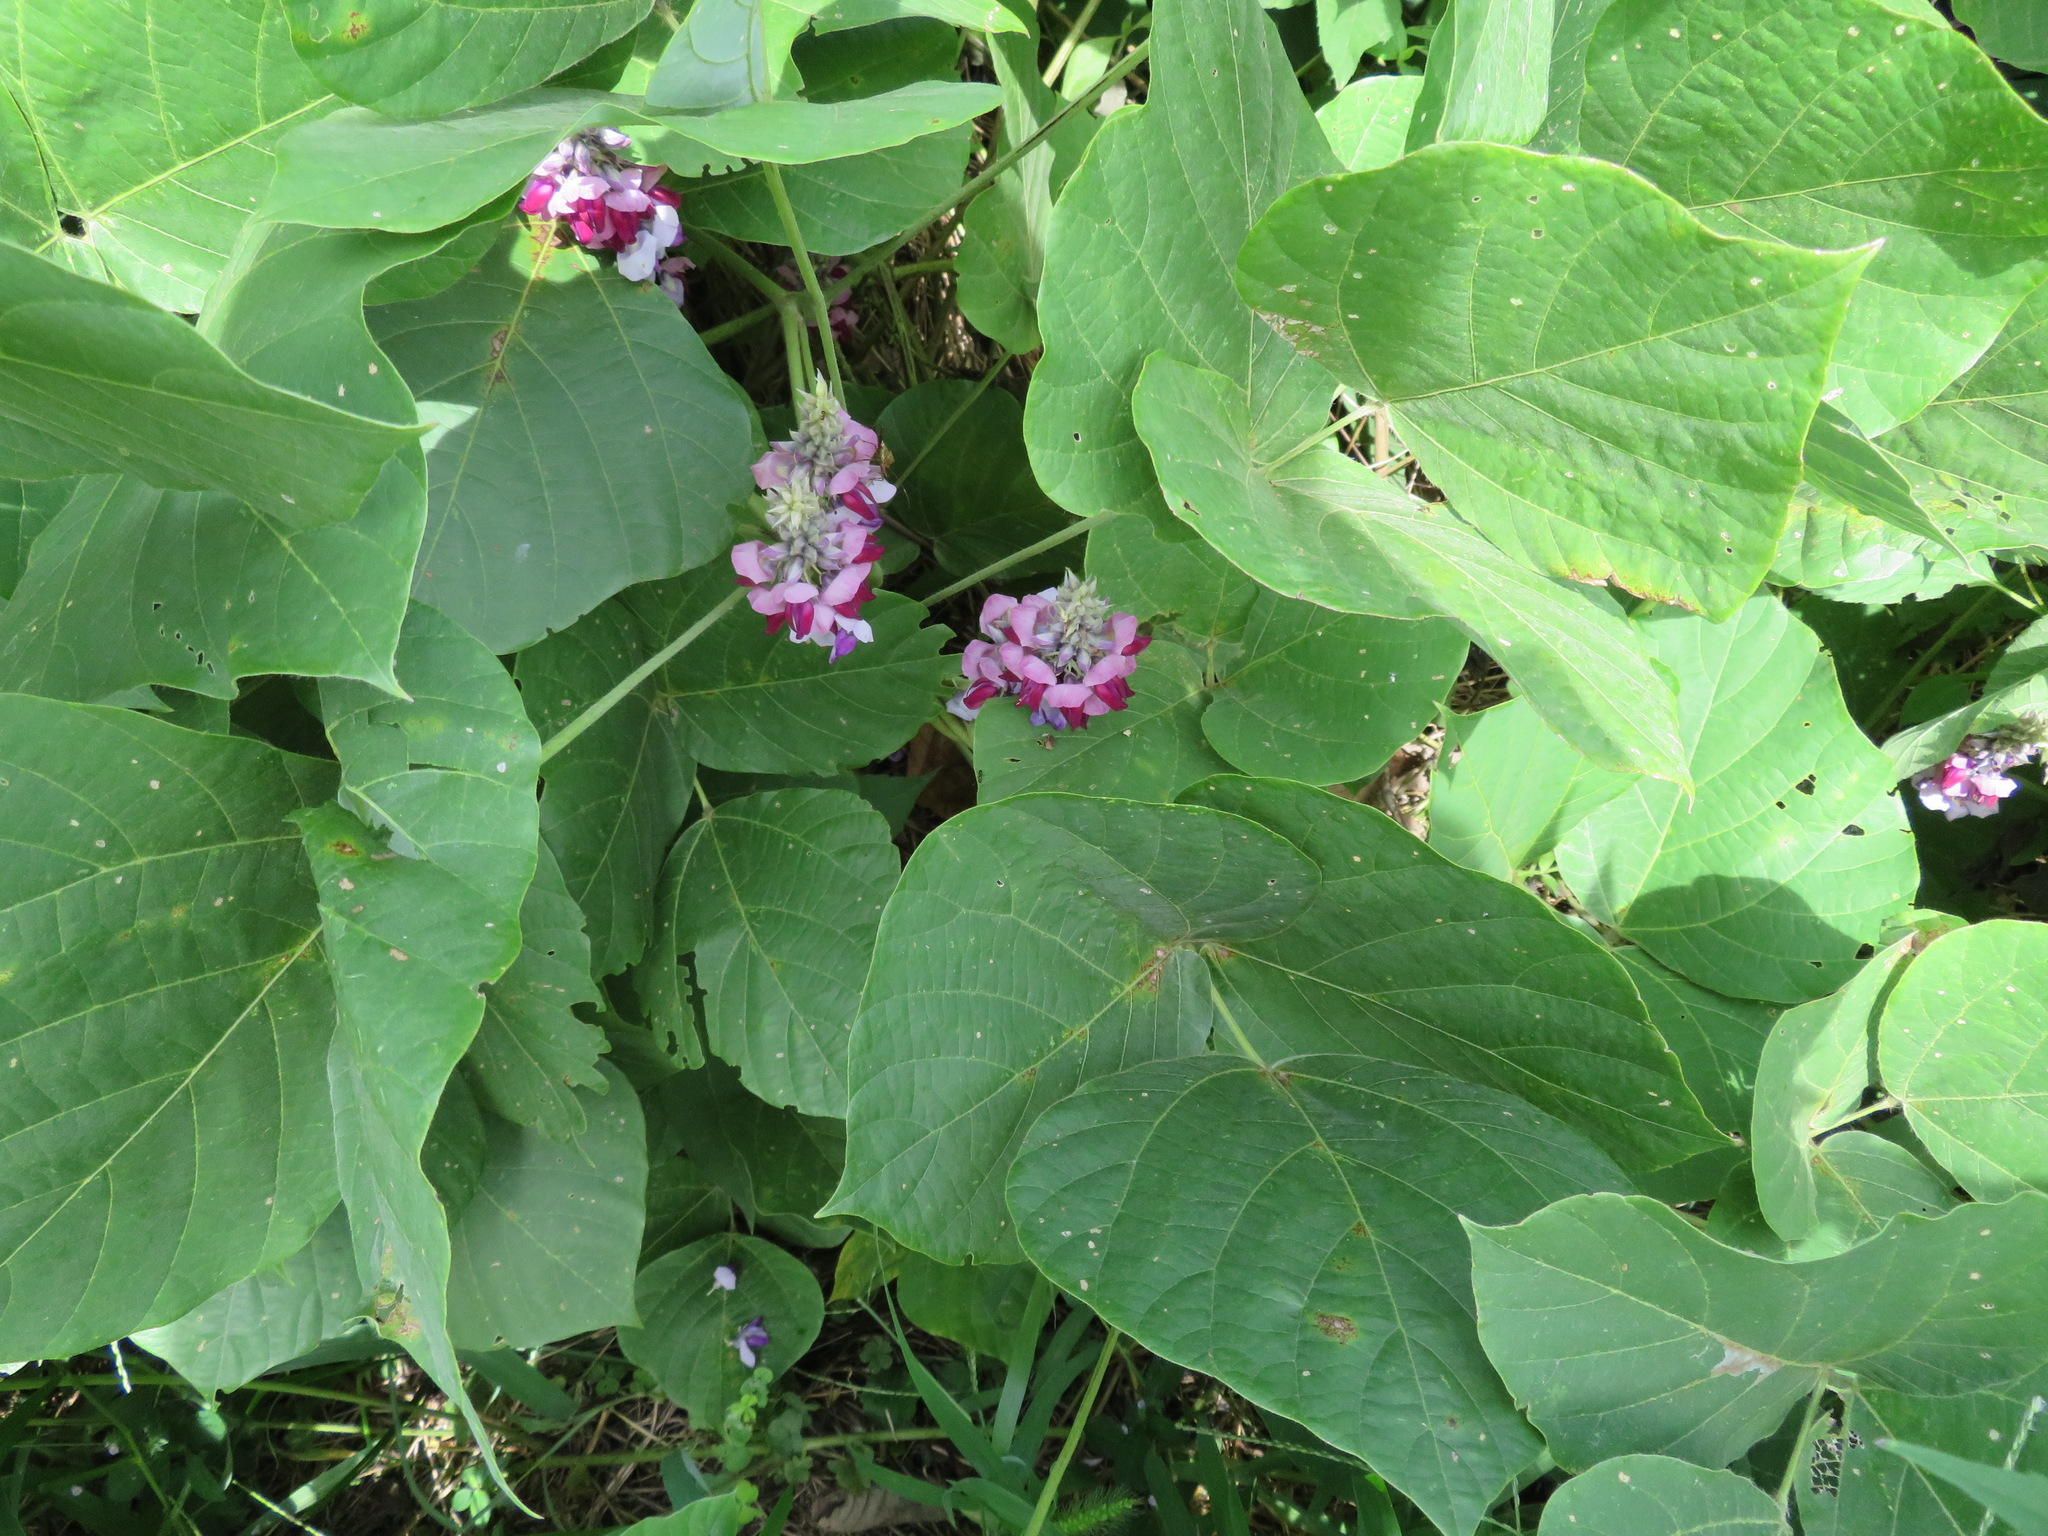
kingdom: Plantae
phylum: Tracheophyta
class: Magnoliopsida
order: Fabales
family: Fabaceae
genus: Pueraria
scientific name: Pueraria montana
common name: Kudzu
